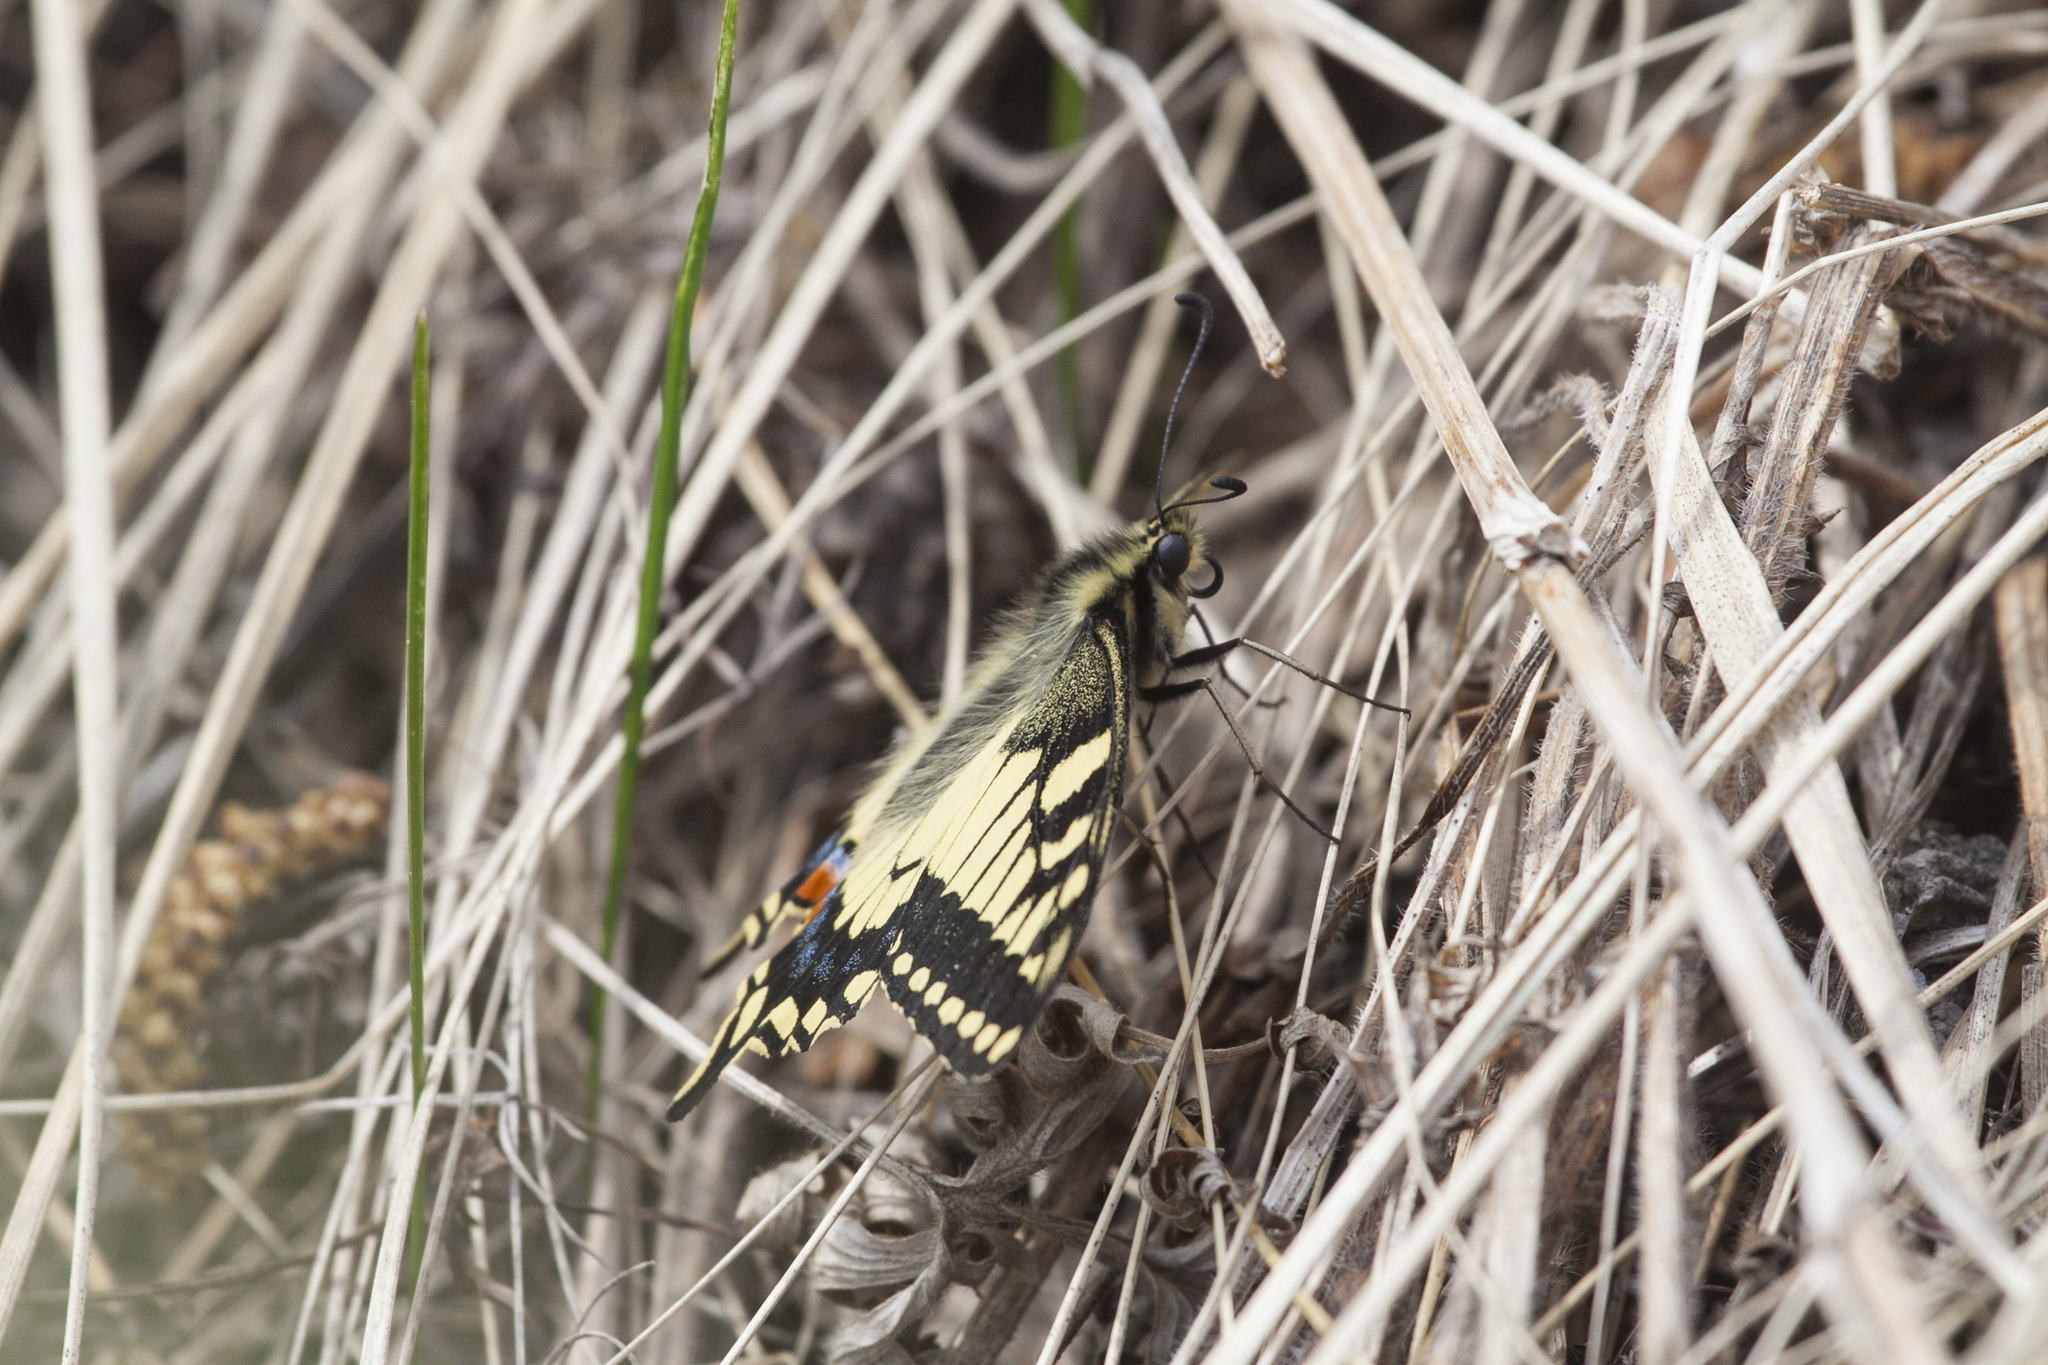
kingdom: Animalia
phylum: Arthropoda
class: Insecta
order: Lepidoptera
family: Papilionidae
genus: Papilio
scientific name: Papilio machaon
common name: Swallowtail
